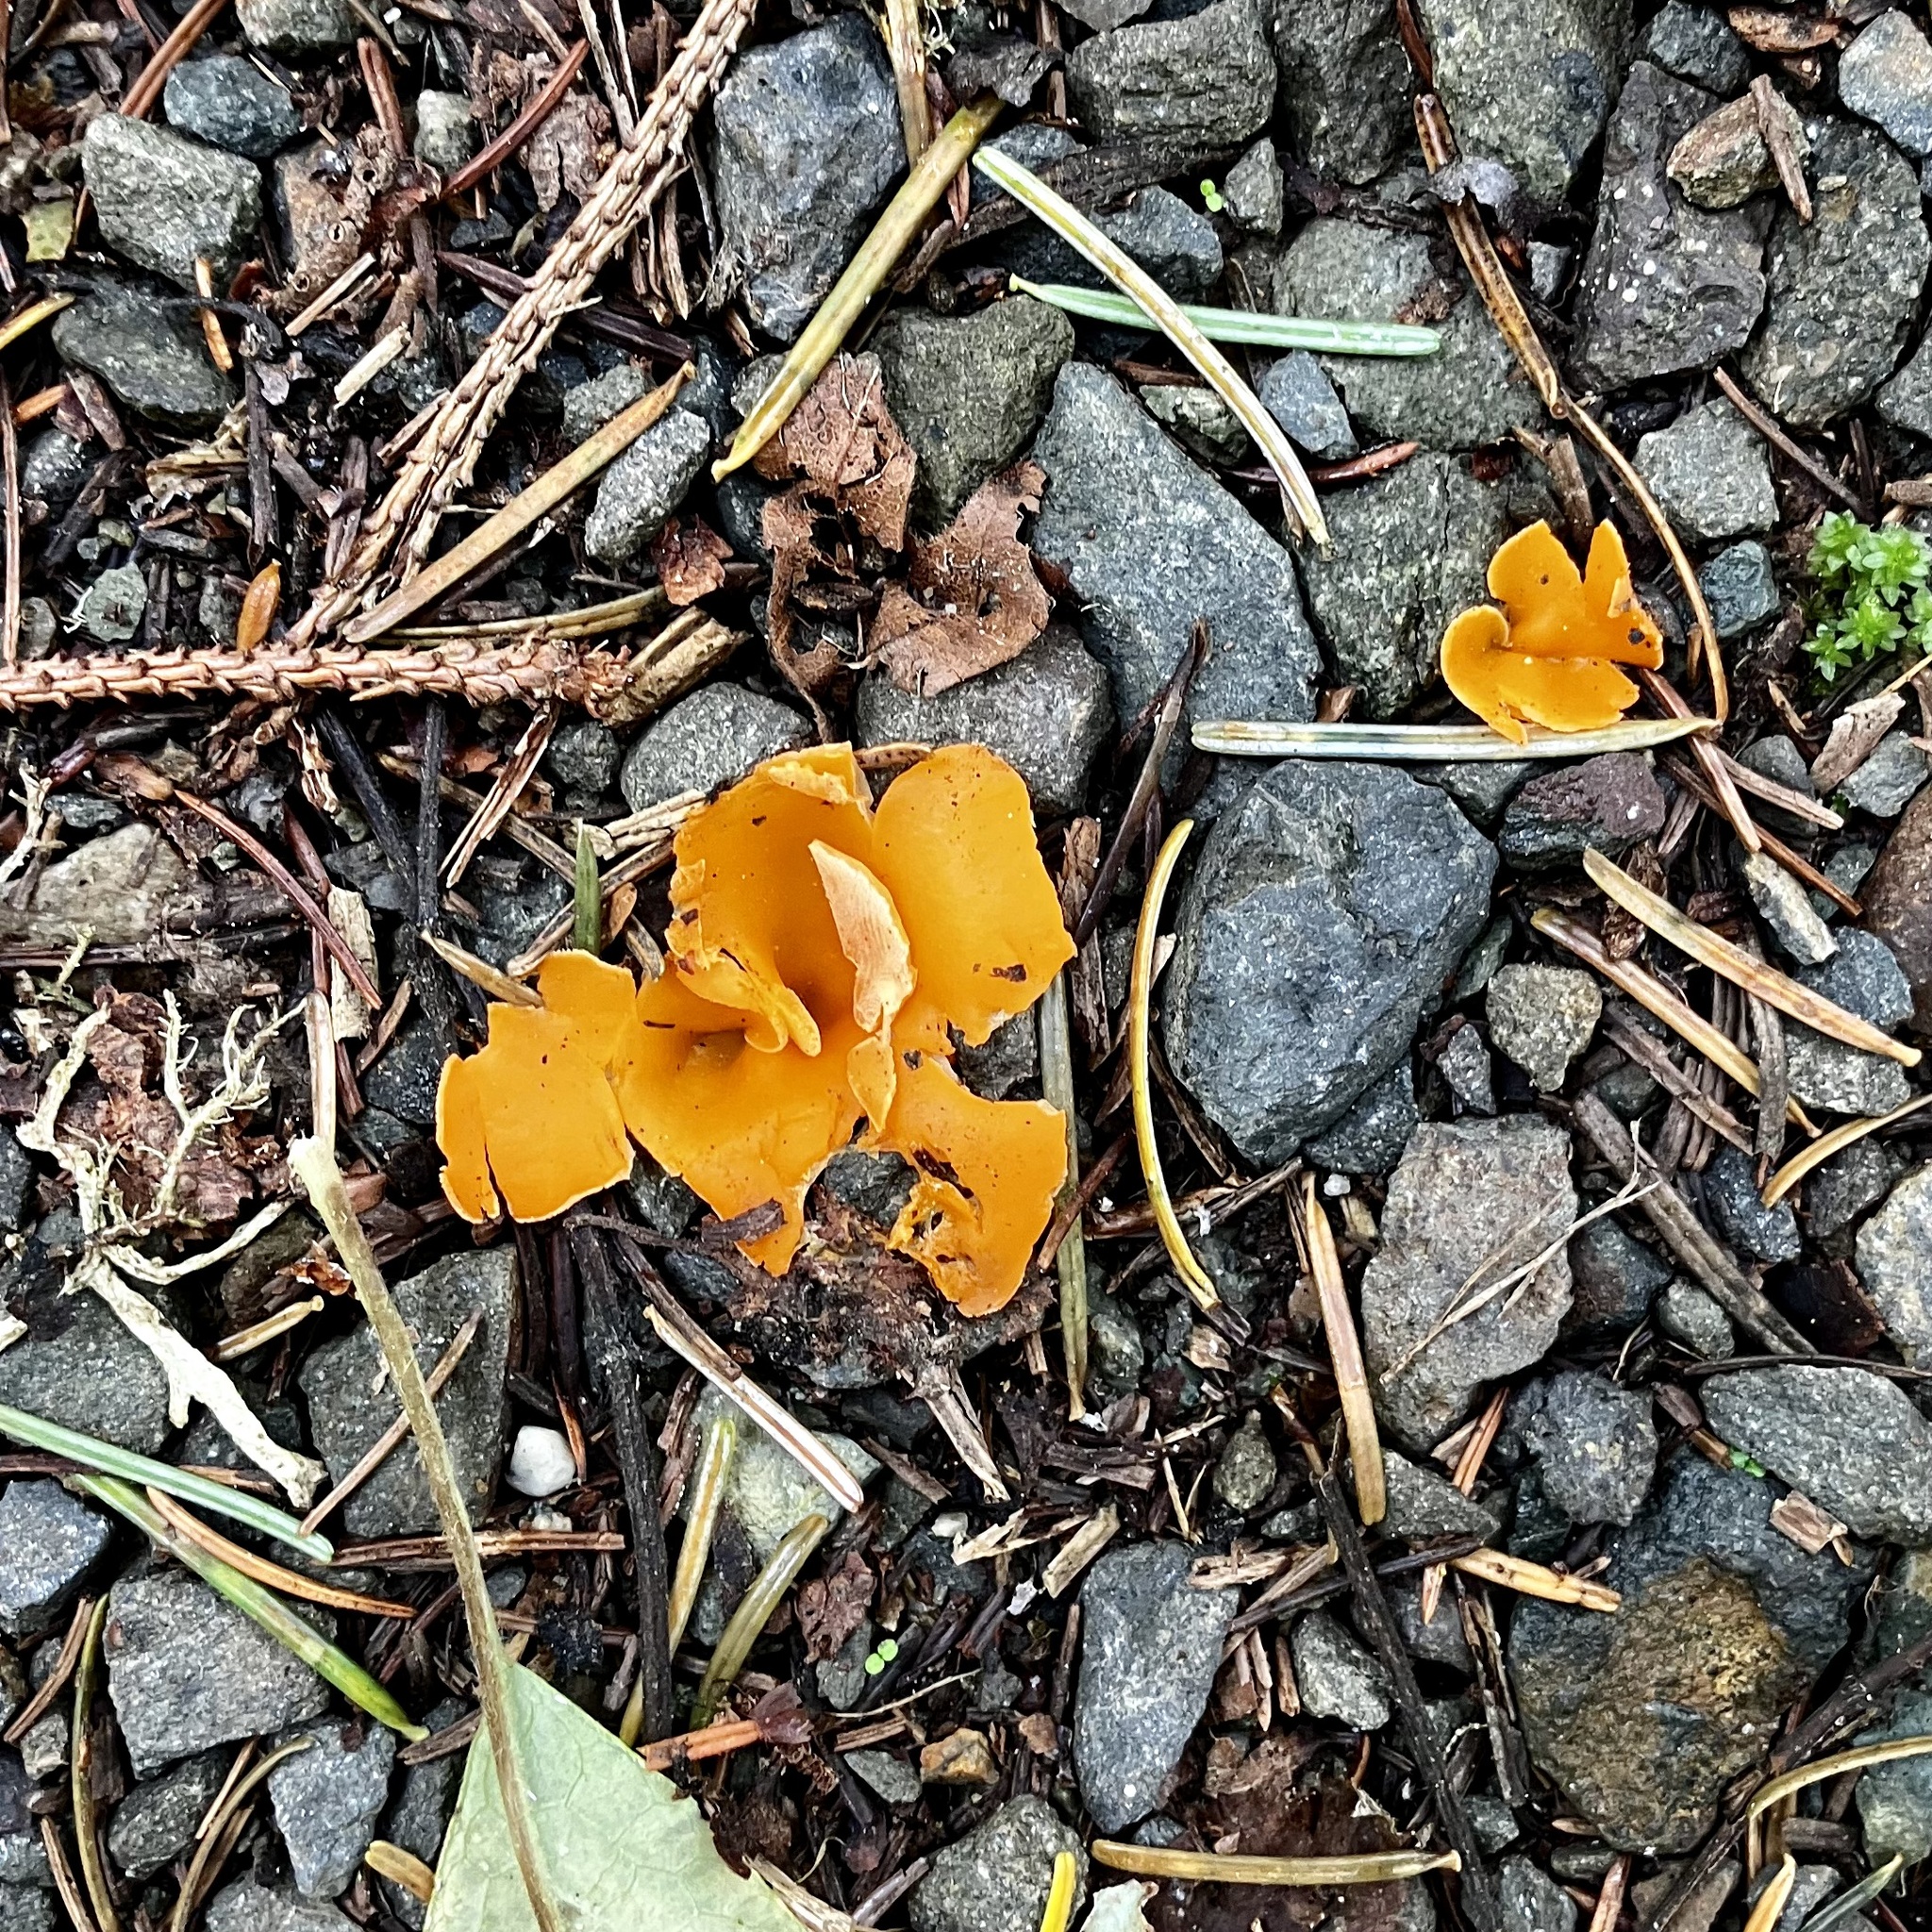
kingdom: Fungi
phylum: Ascomycota
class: Pezizomycetes
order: Pezizales
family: Pyronemataceae
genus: Aleuria
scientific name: Aleuria aurantia
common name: Orange peel fungus
